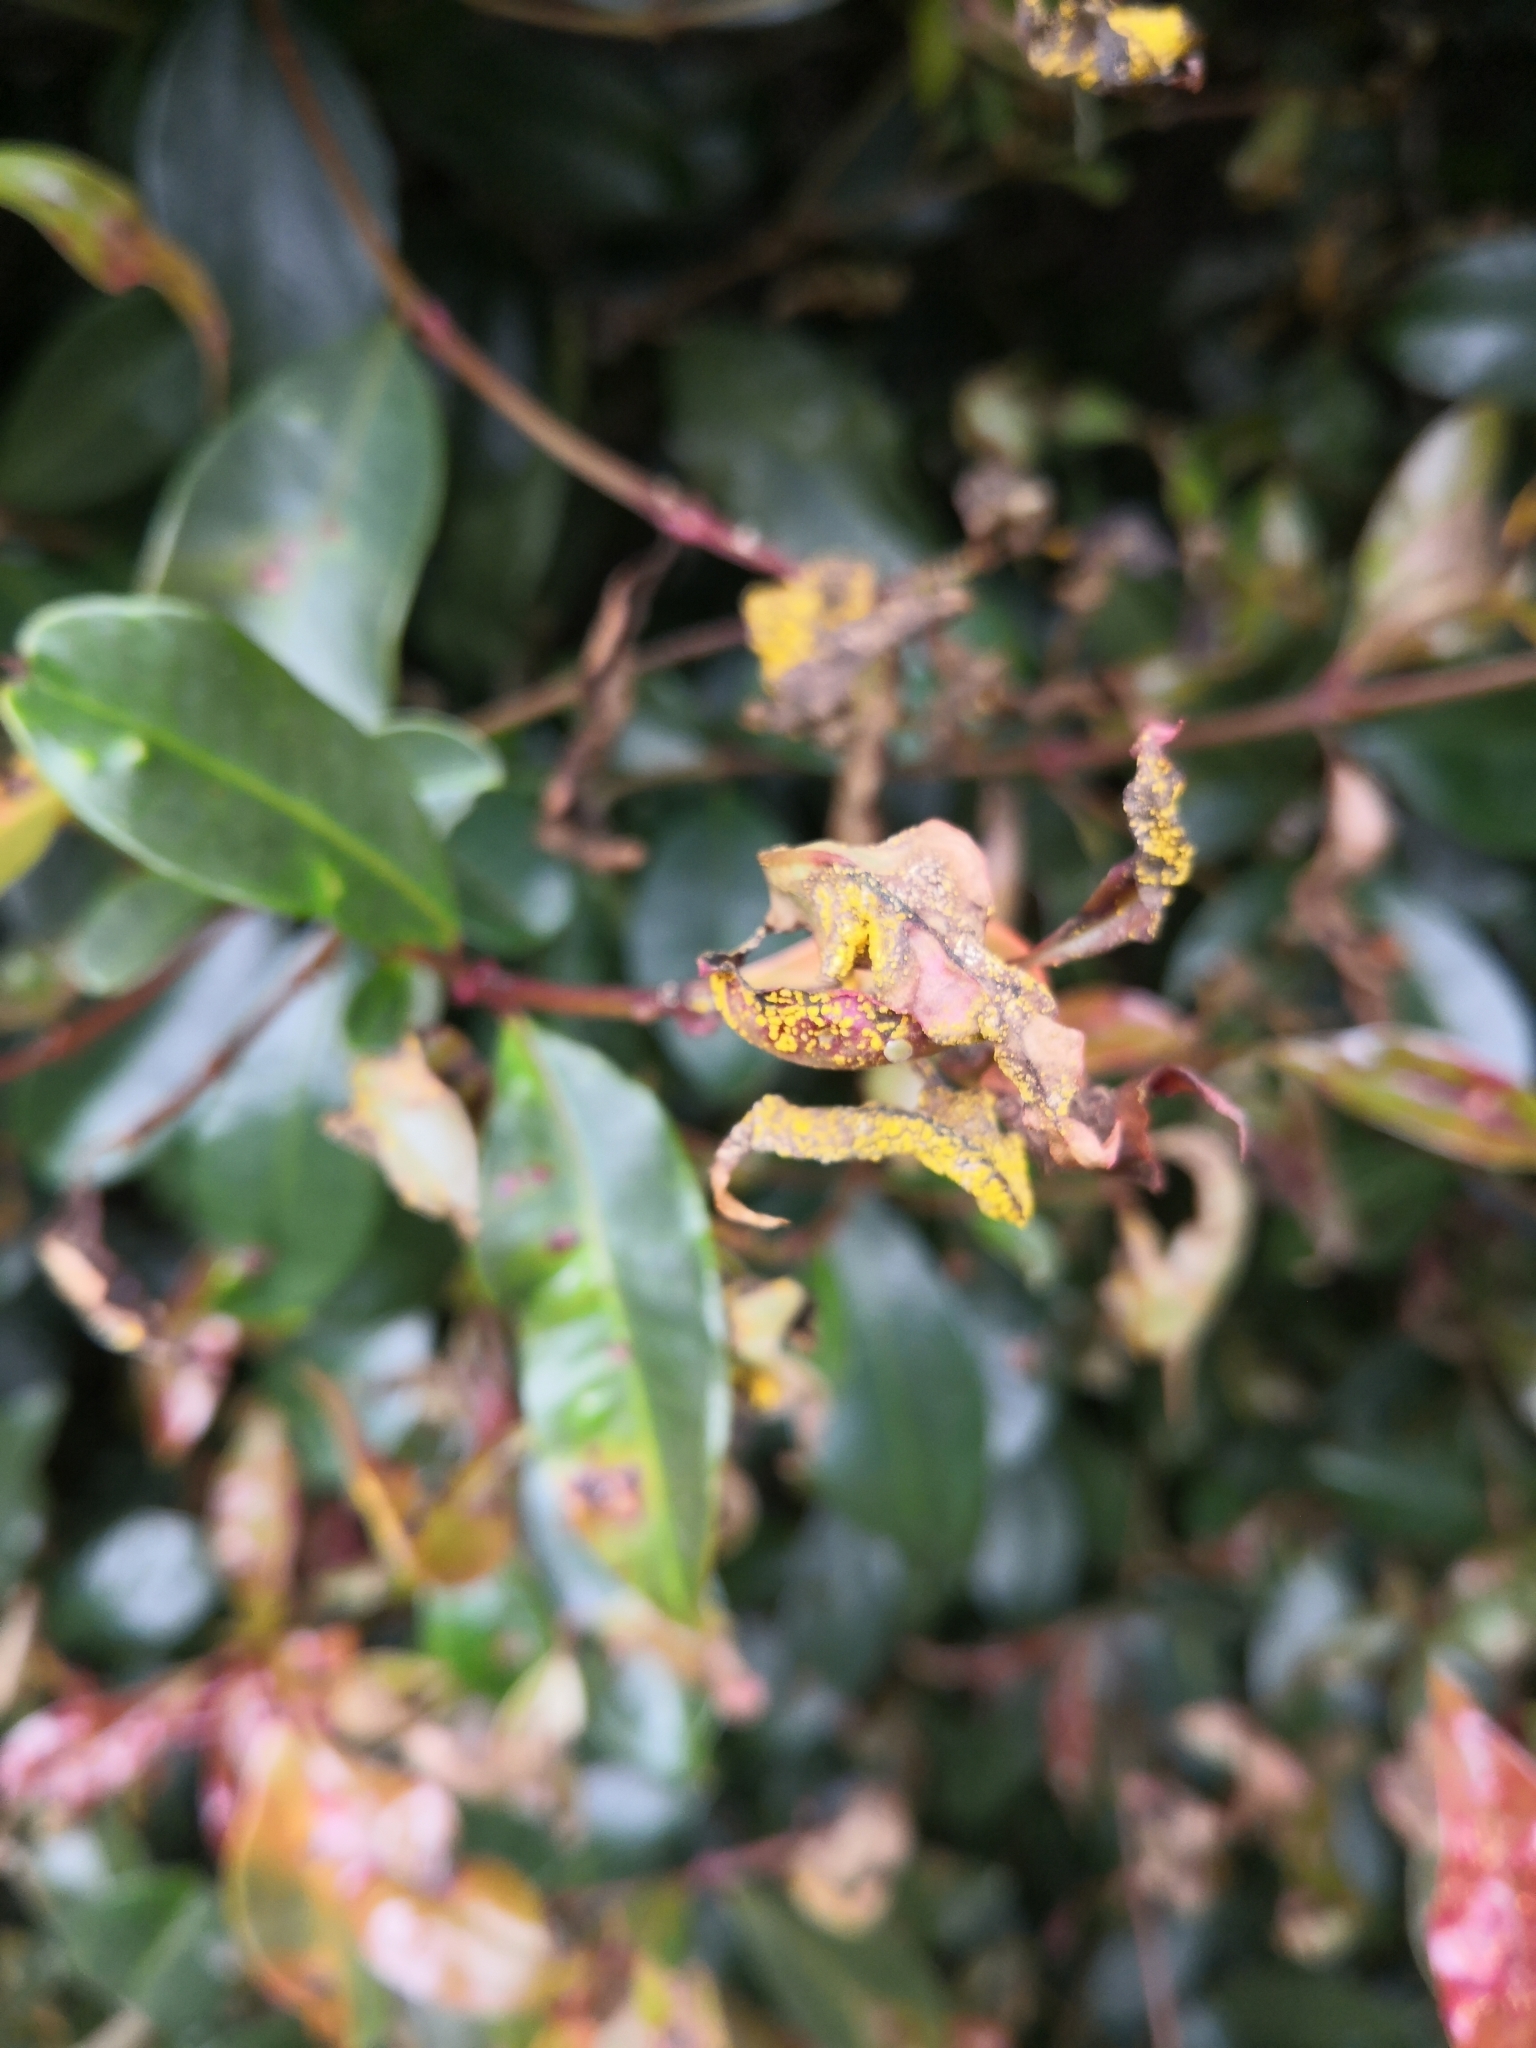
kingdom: Fungi
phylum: Basidiomycota
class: Pucciniomycetes
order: Pucciniales
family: Sphaerophragmiaceae
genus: Austropuccinia
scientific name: Austropuccinia psidii
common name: Myrtle rust
